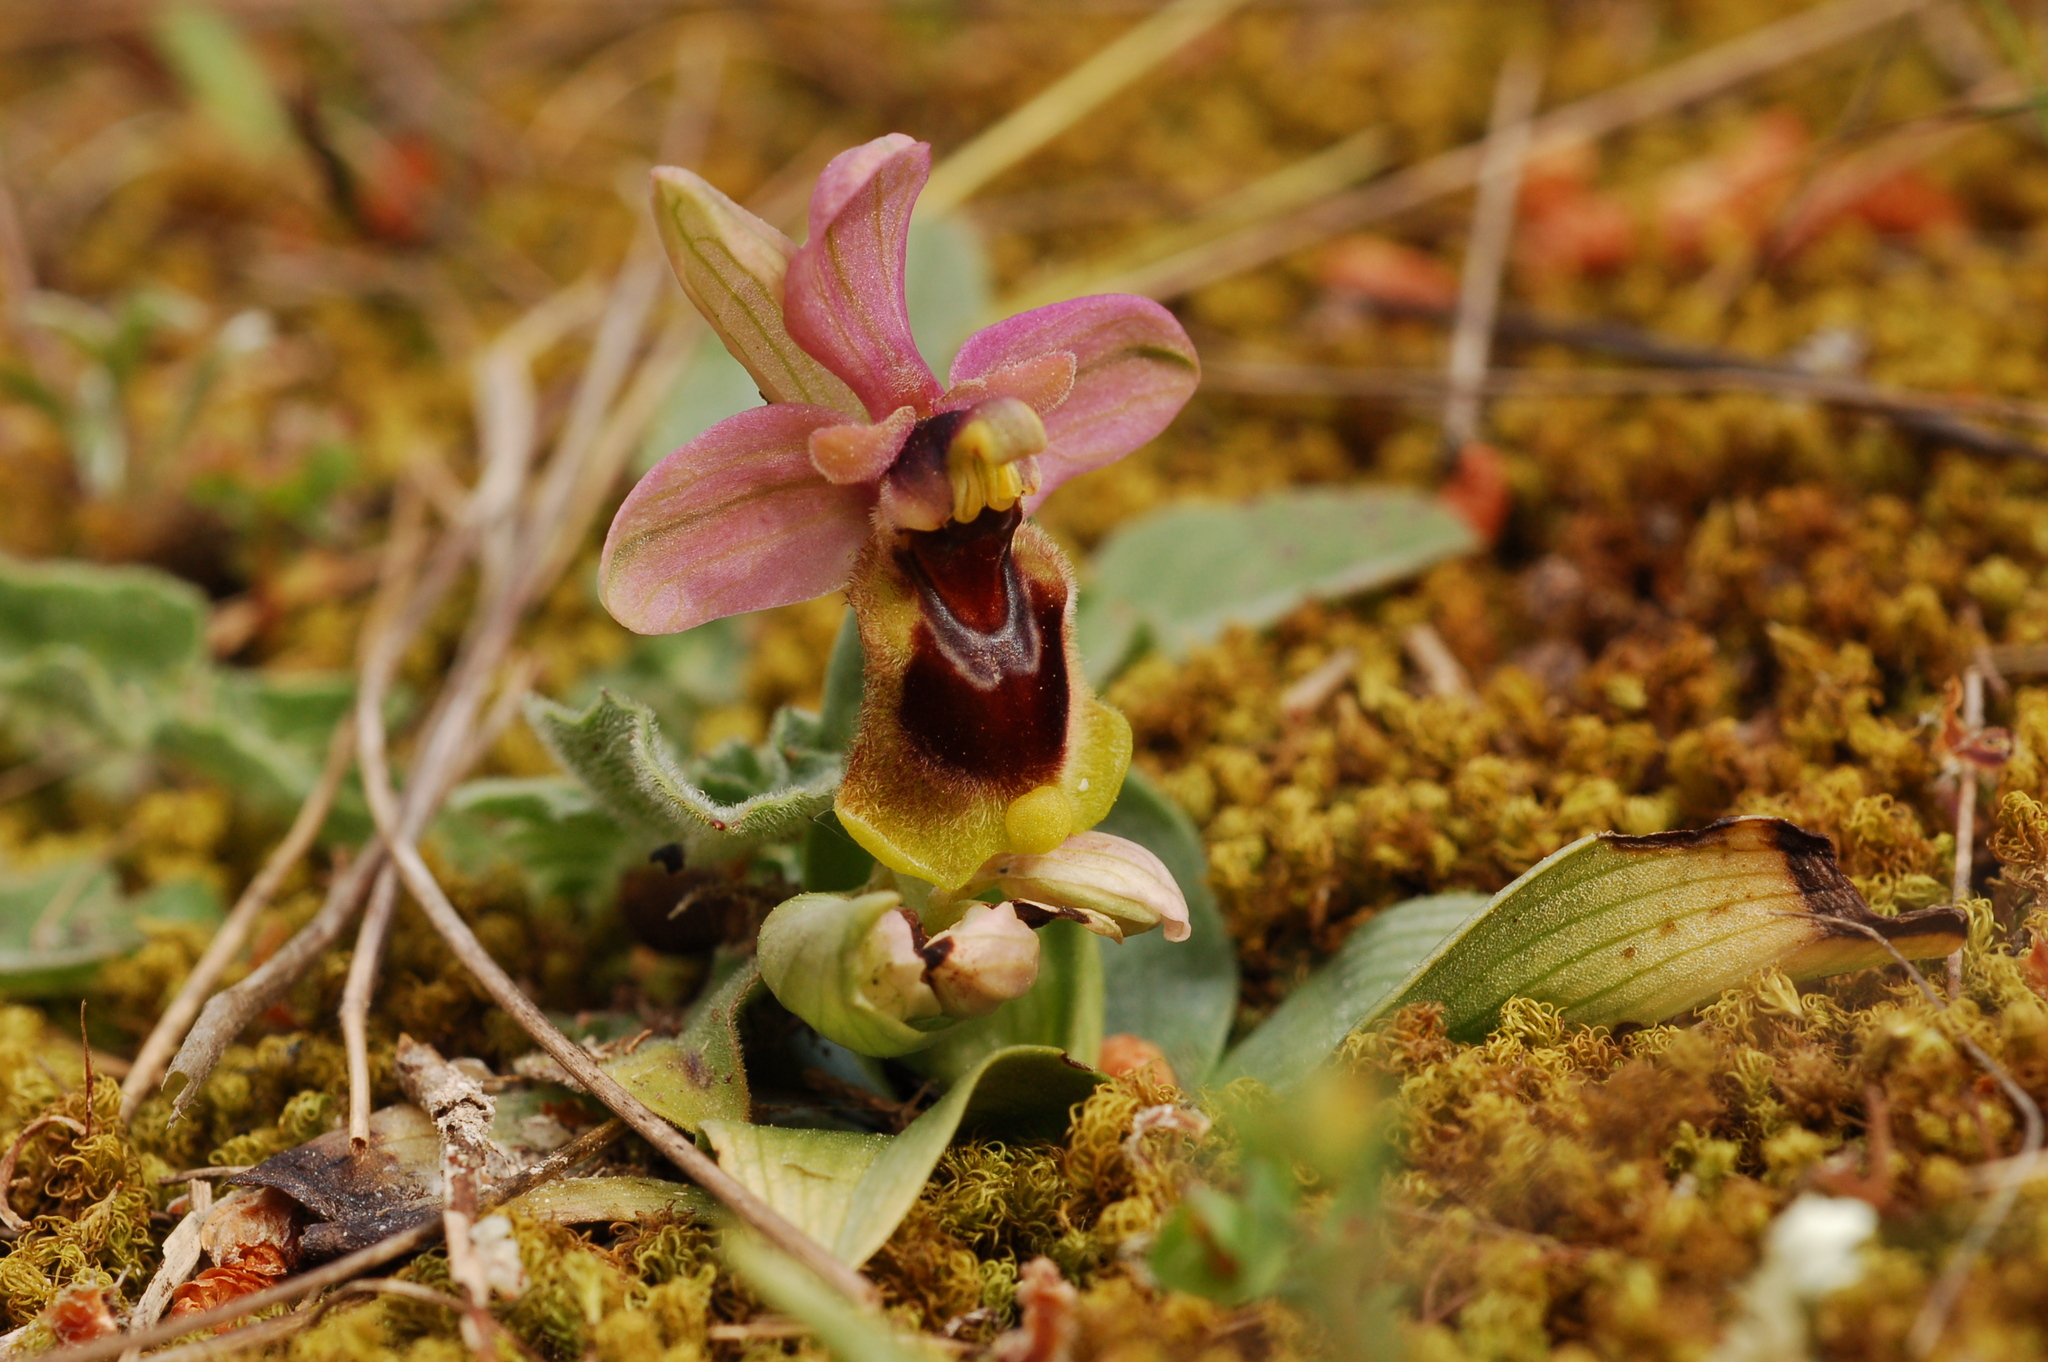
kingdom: Plantae
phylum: Tracheophyta
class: Liliopsida
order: Asparagales
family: Orchidaceae
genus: Ophrys
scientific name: Ophrys tenthredinifera
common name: Sawfly orchid
